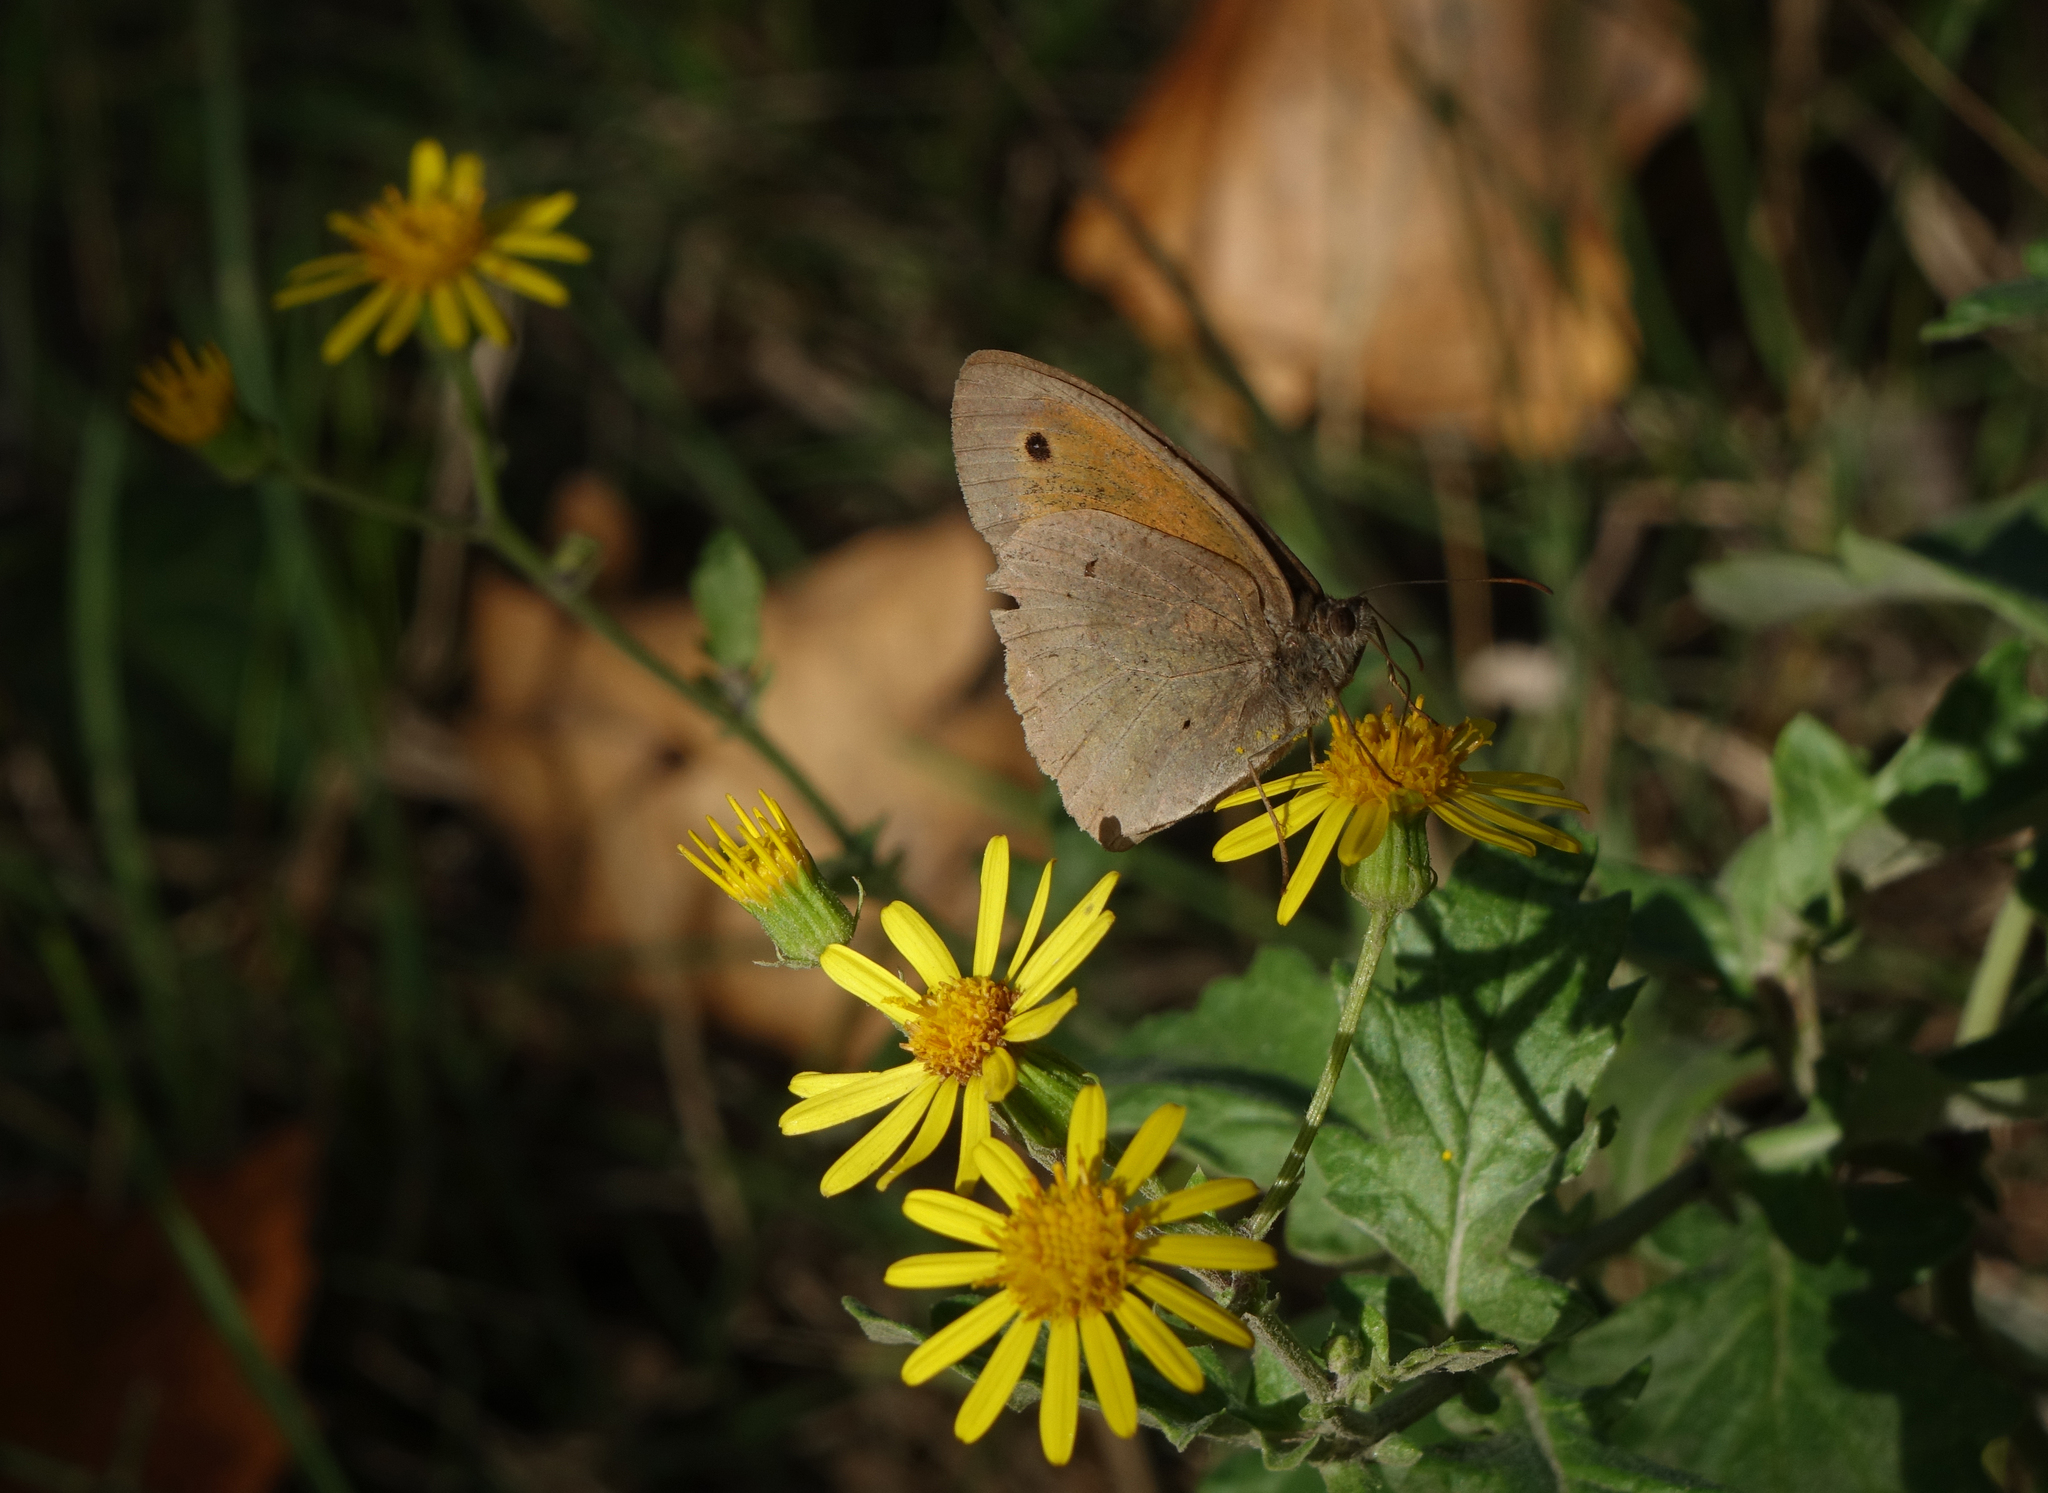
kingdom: Animalia
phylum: Arthropoda
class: Insecta
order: Lepidoptera
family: Nymphalidae
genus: Maniola
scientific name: Maniola jurtina
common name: Meadow brown
